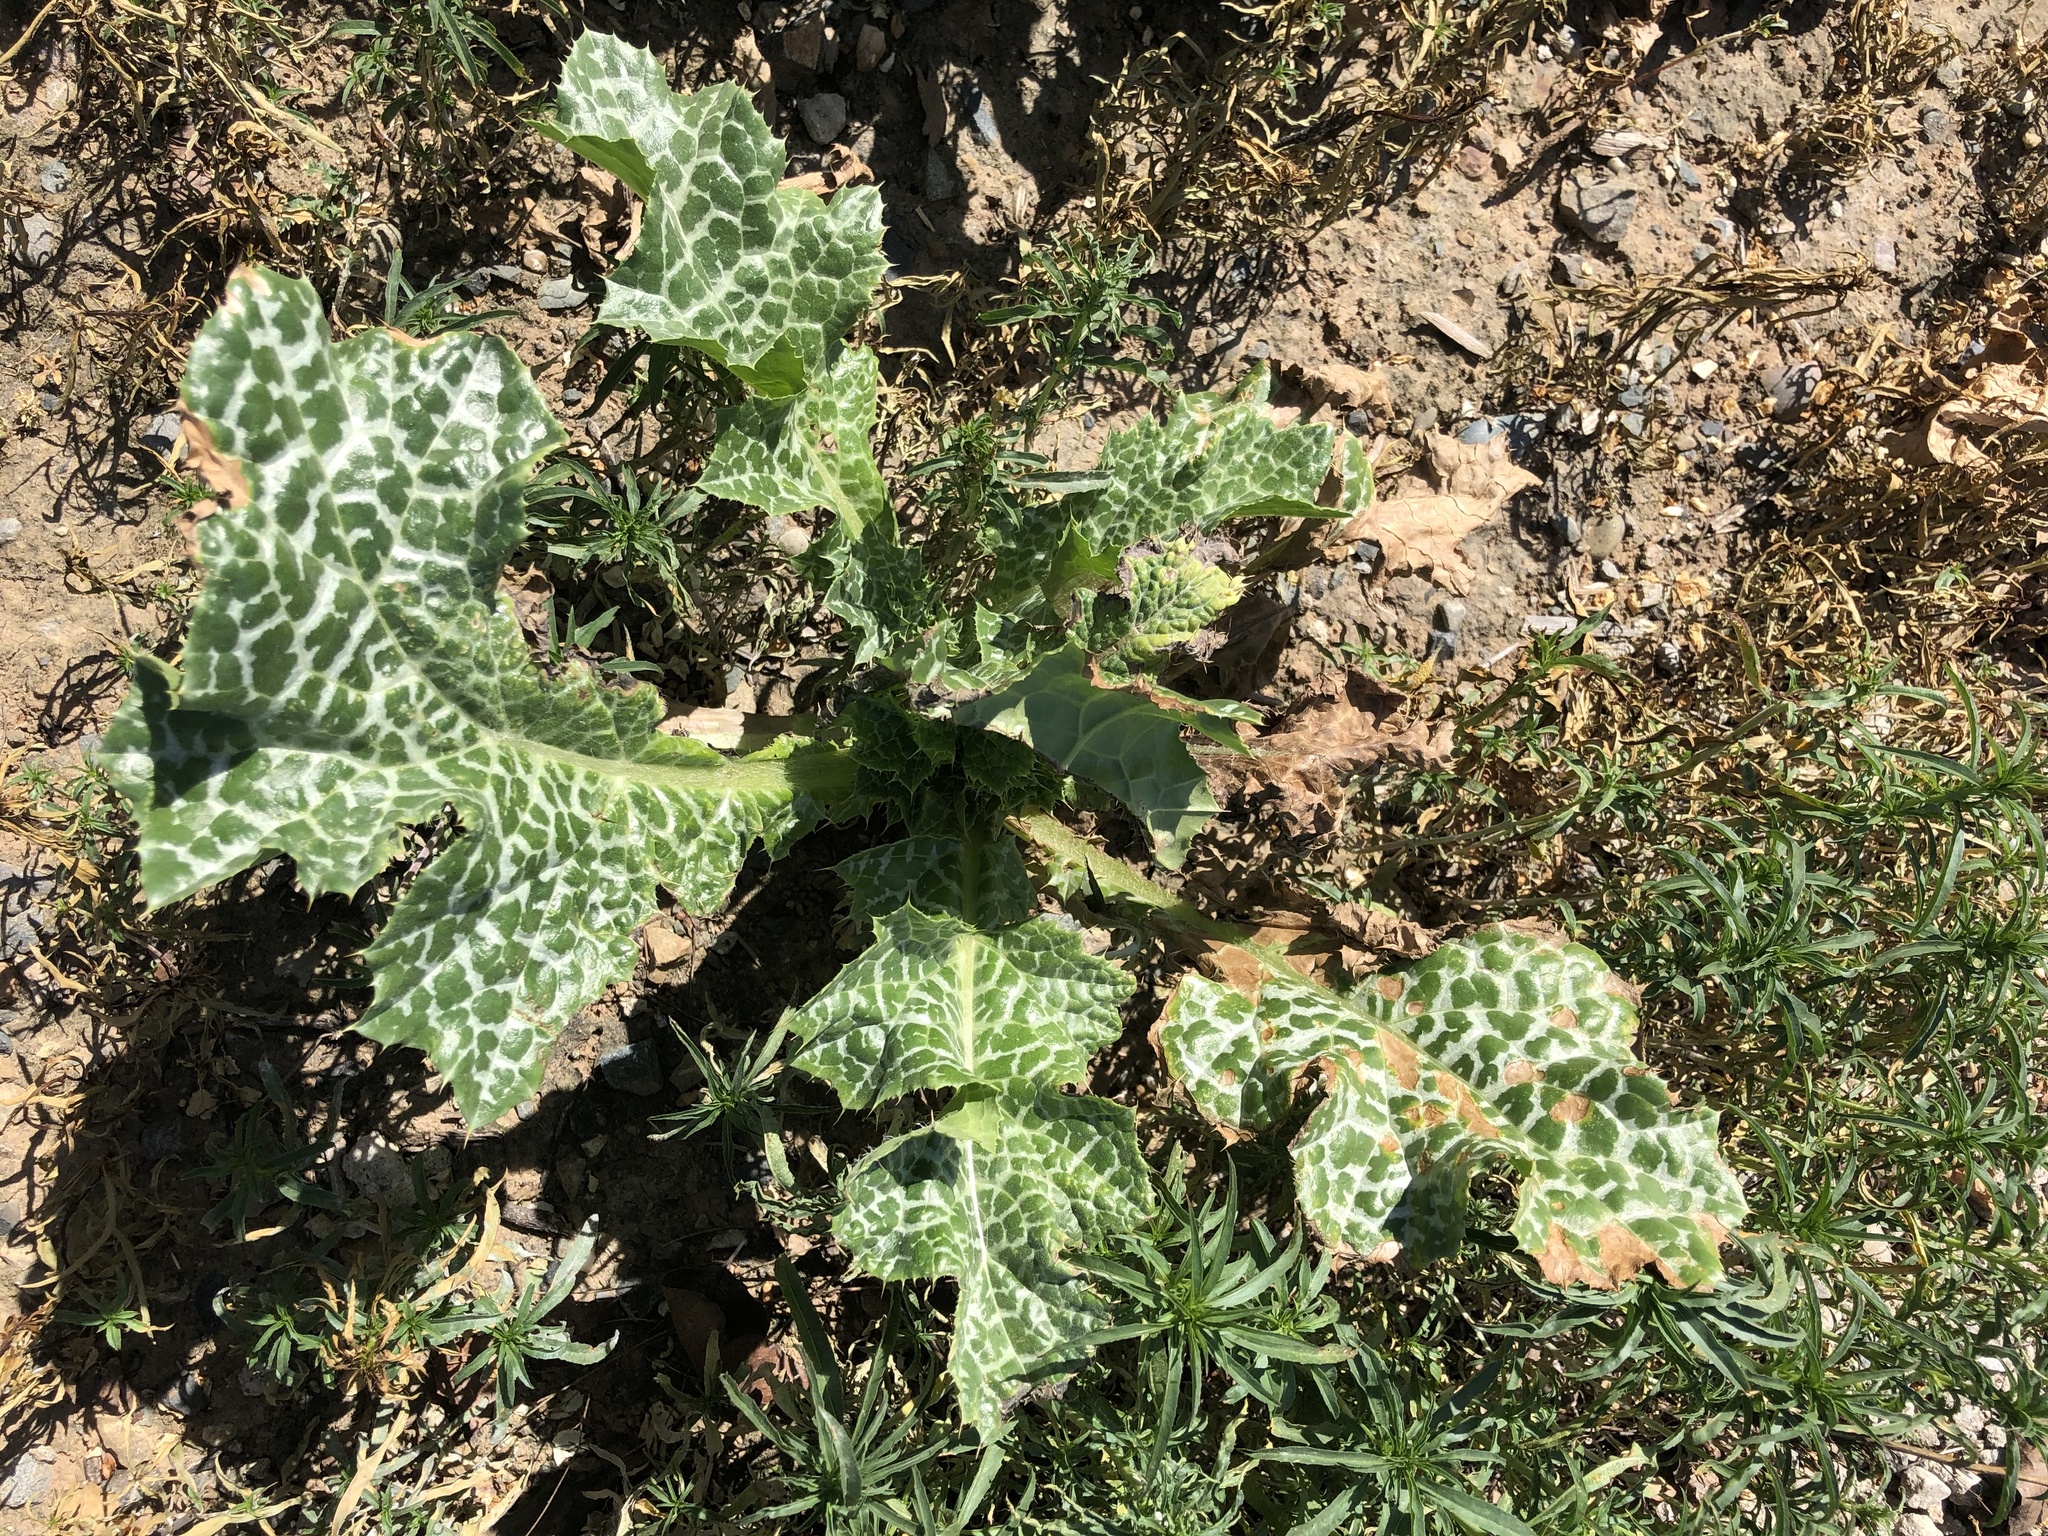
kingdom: Plantae
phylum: Tracheophyta
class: Magnoliopsida
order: Asterales
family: Asteraceae
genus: Silybum
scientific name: Silybum marianum
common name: Milk thistle
